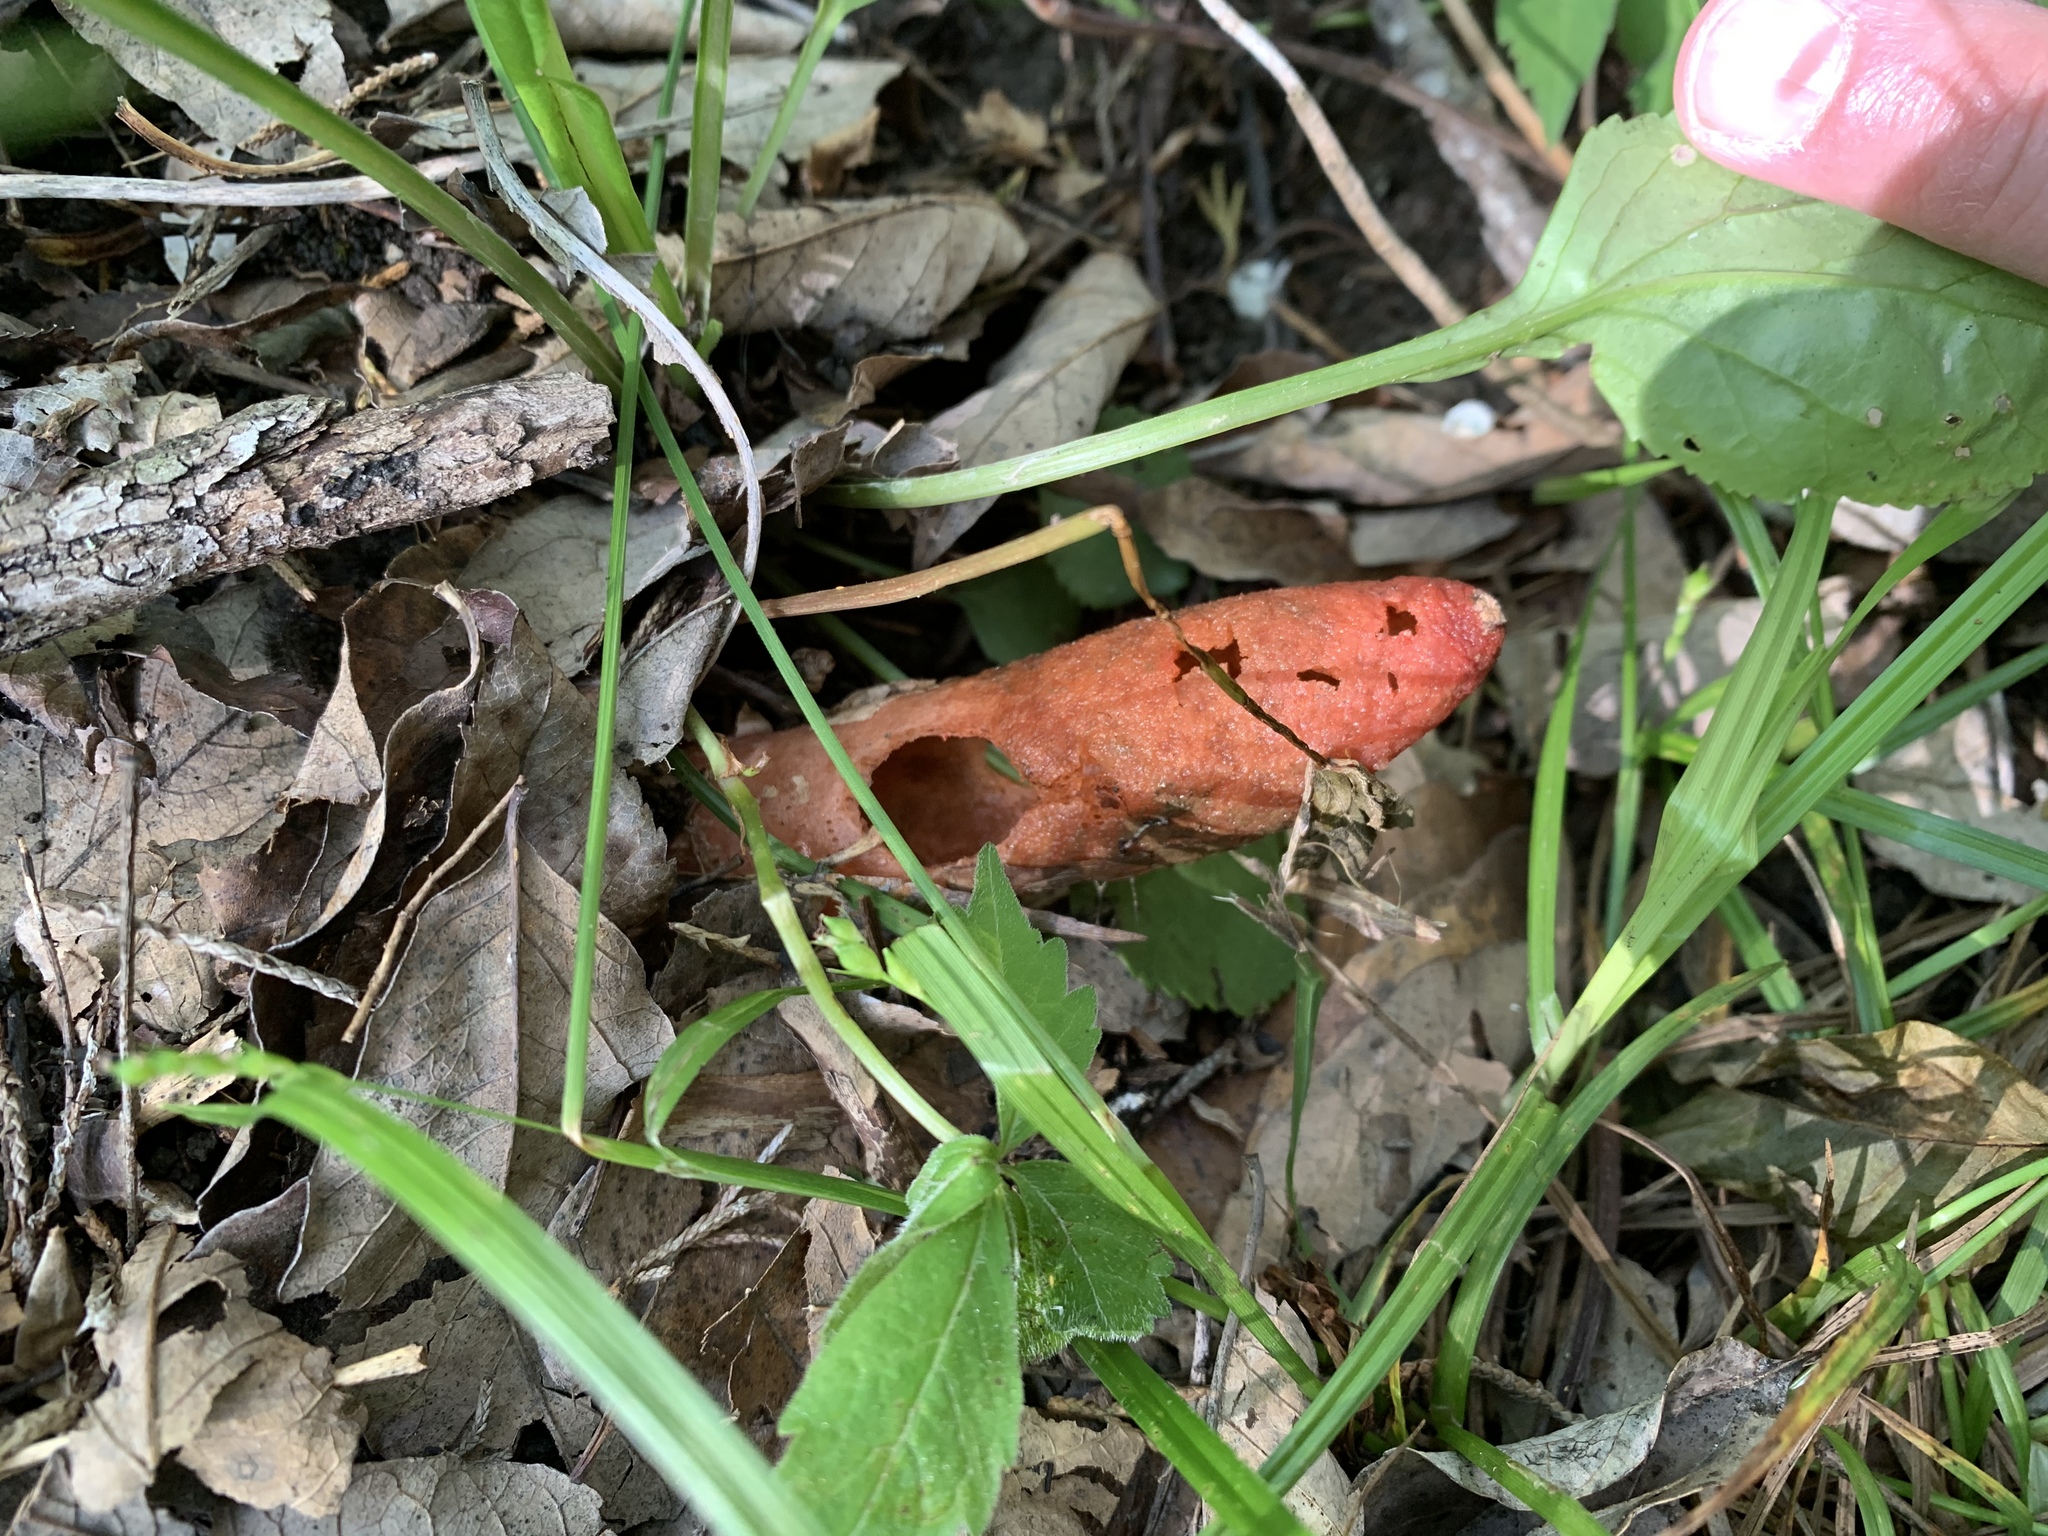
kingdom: Fungi
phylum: Basidiomycota
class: Agaricomycetes
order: Phallales
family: Phallaceae
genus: Mutinus
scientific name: Mutinus elegans
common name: Devil's dipstick
